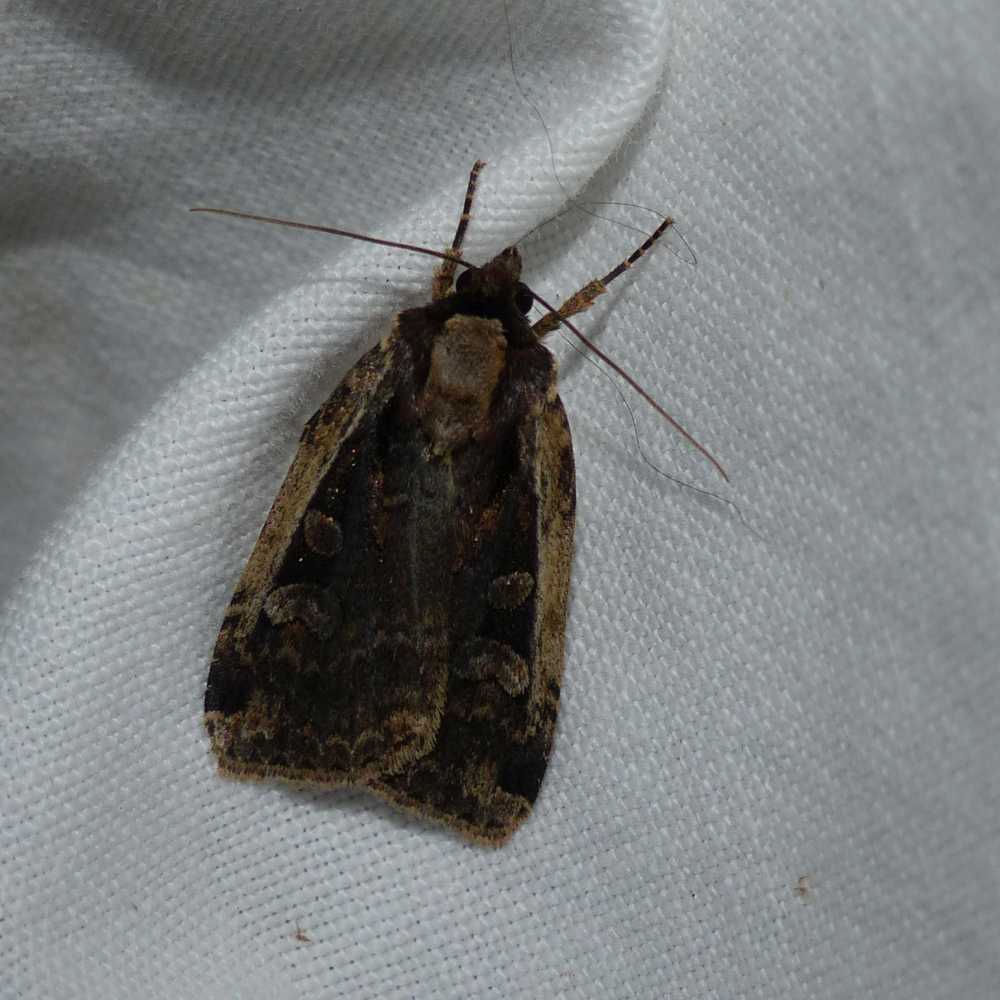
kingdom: Animalia
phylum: Arthropoda
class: Insecta
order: Lepidoptera
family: Noctuidae
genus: Eueretagrotis
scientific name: Eueretagrotis sigmoides
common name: Sigmoid dart
